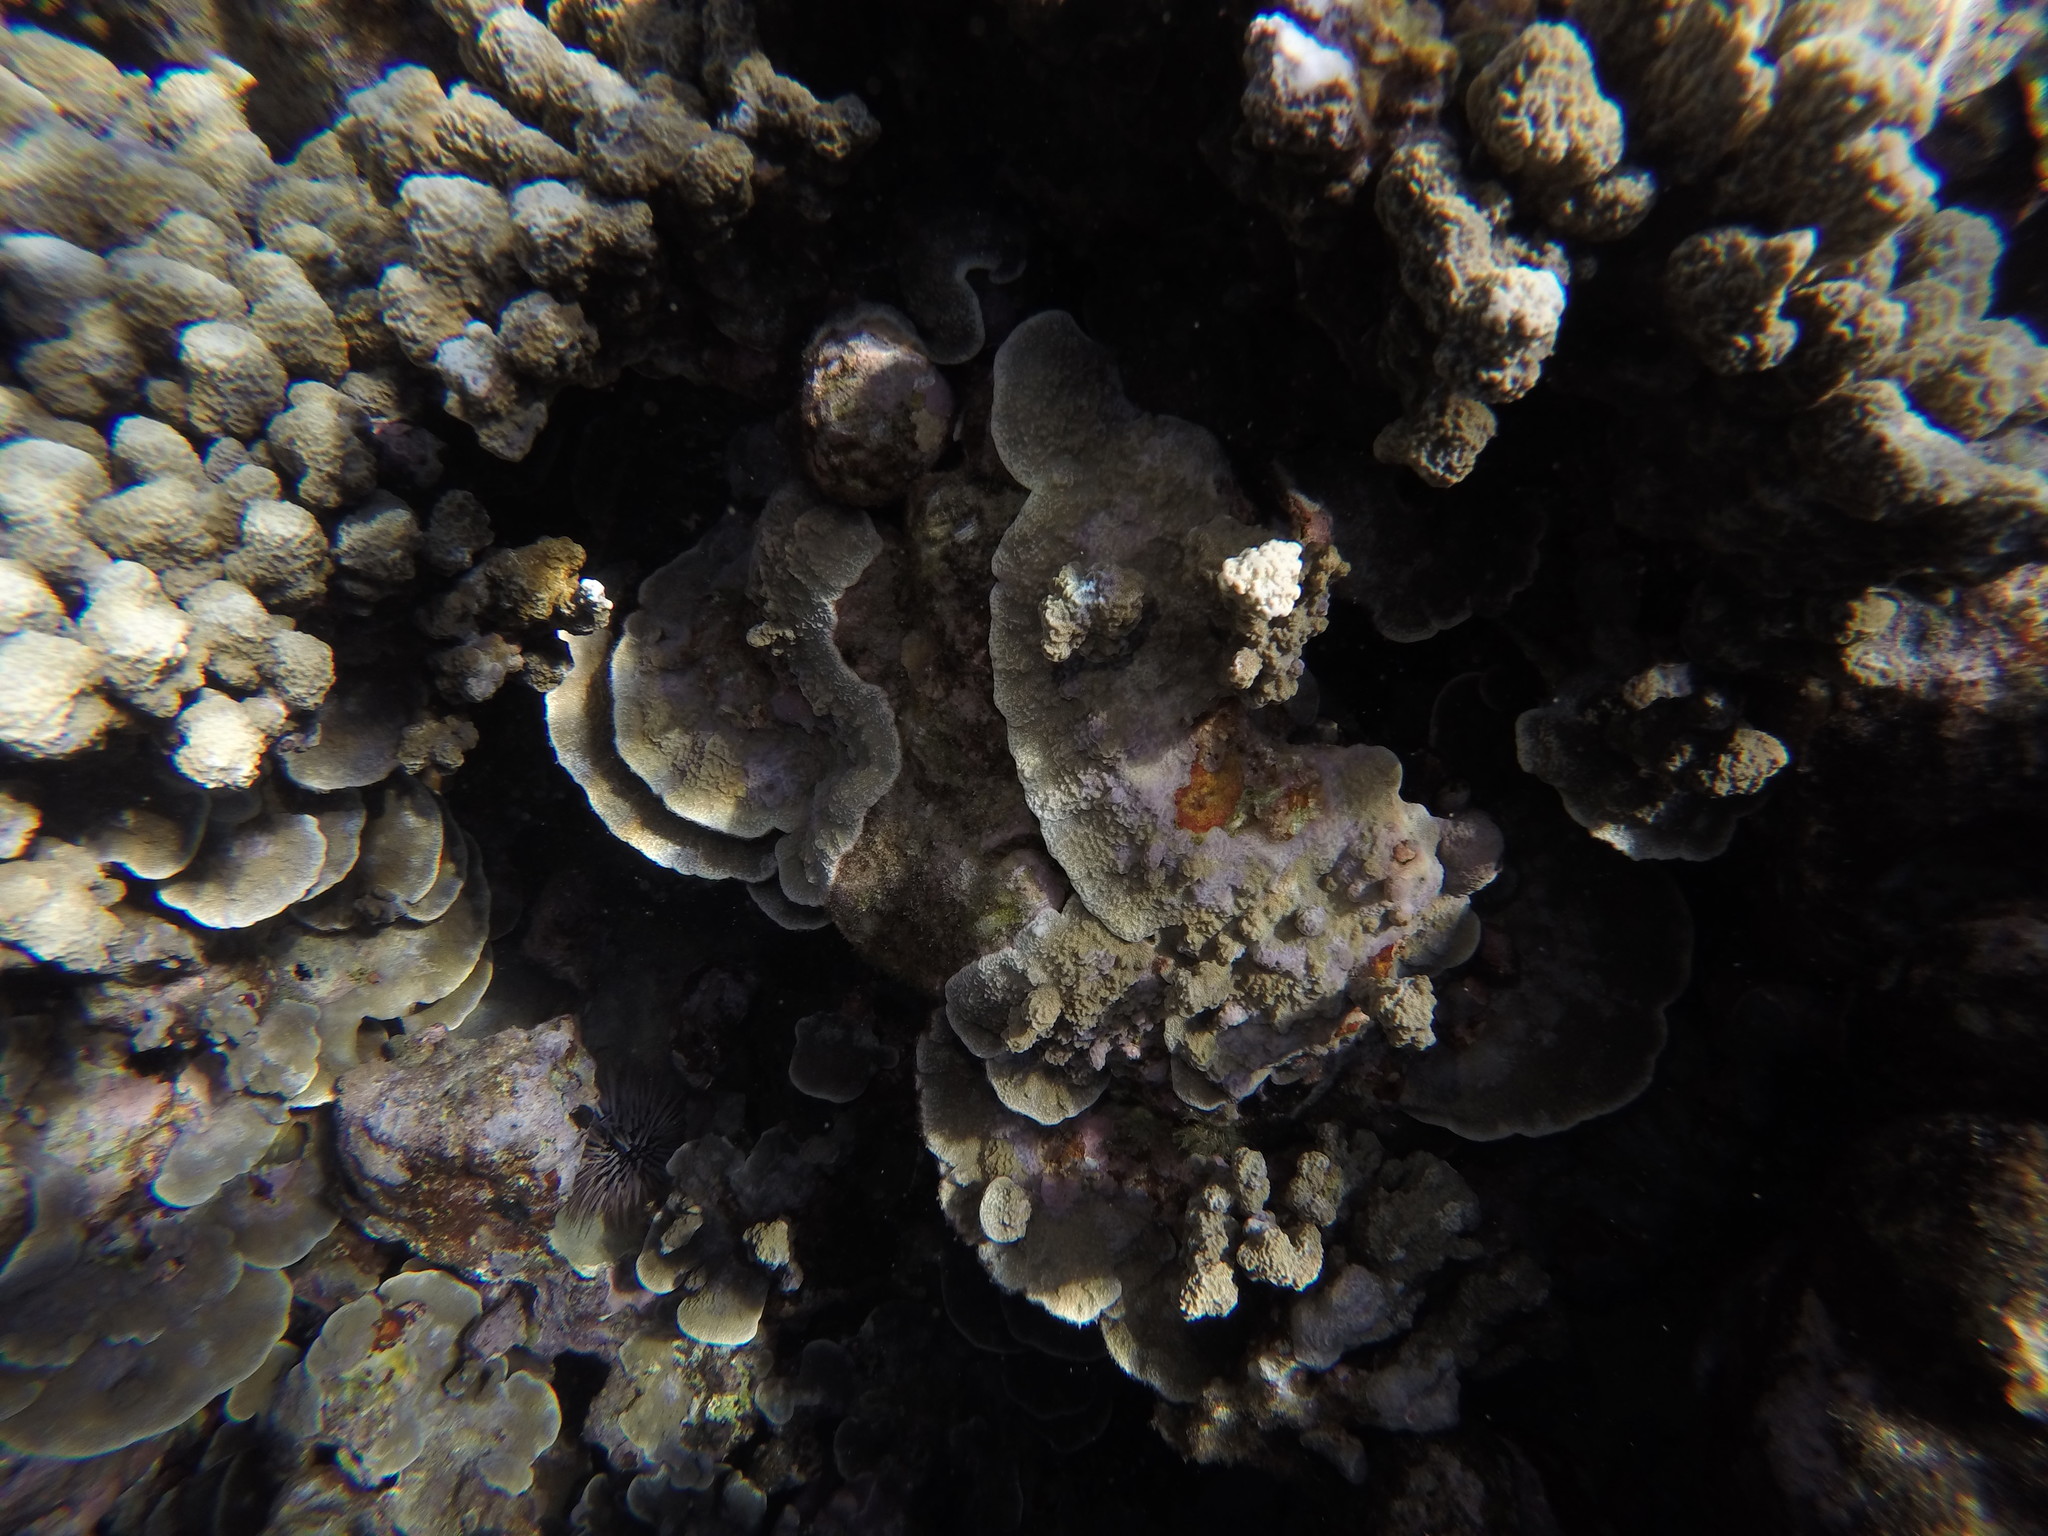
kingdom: Animalia
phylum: Cnidaria
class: Anthozoa
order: Scleractinia
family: Poritidae
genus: Porites
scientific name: Porites rus
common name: Hump coral
